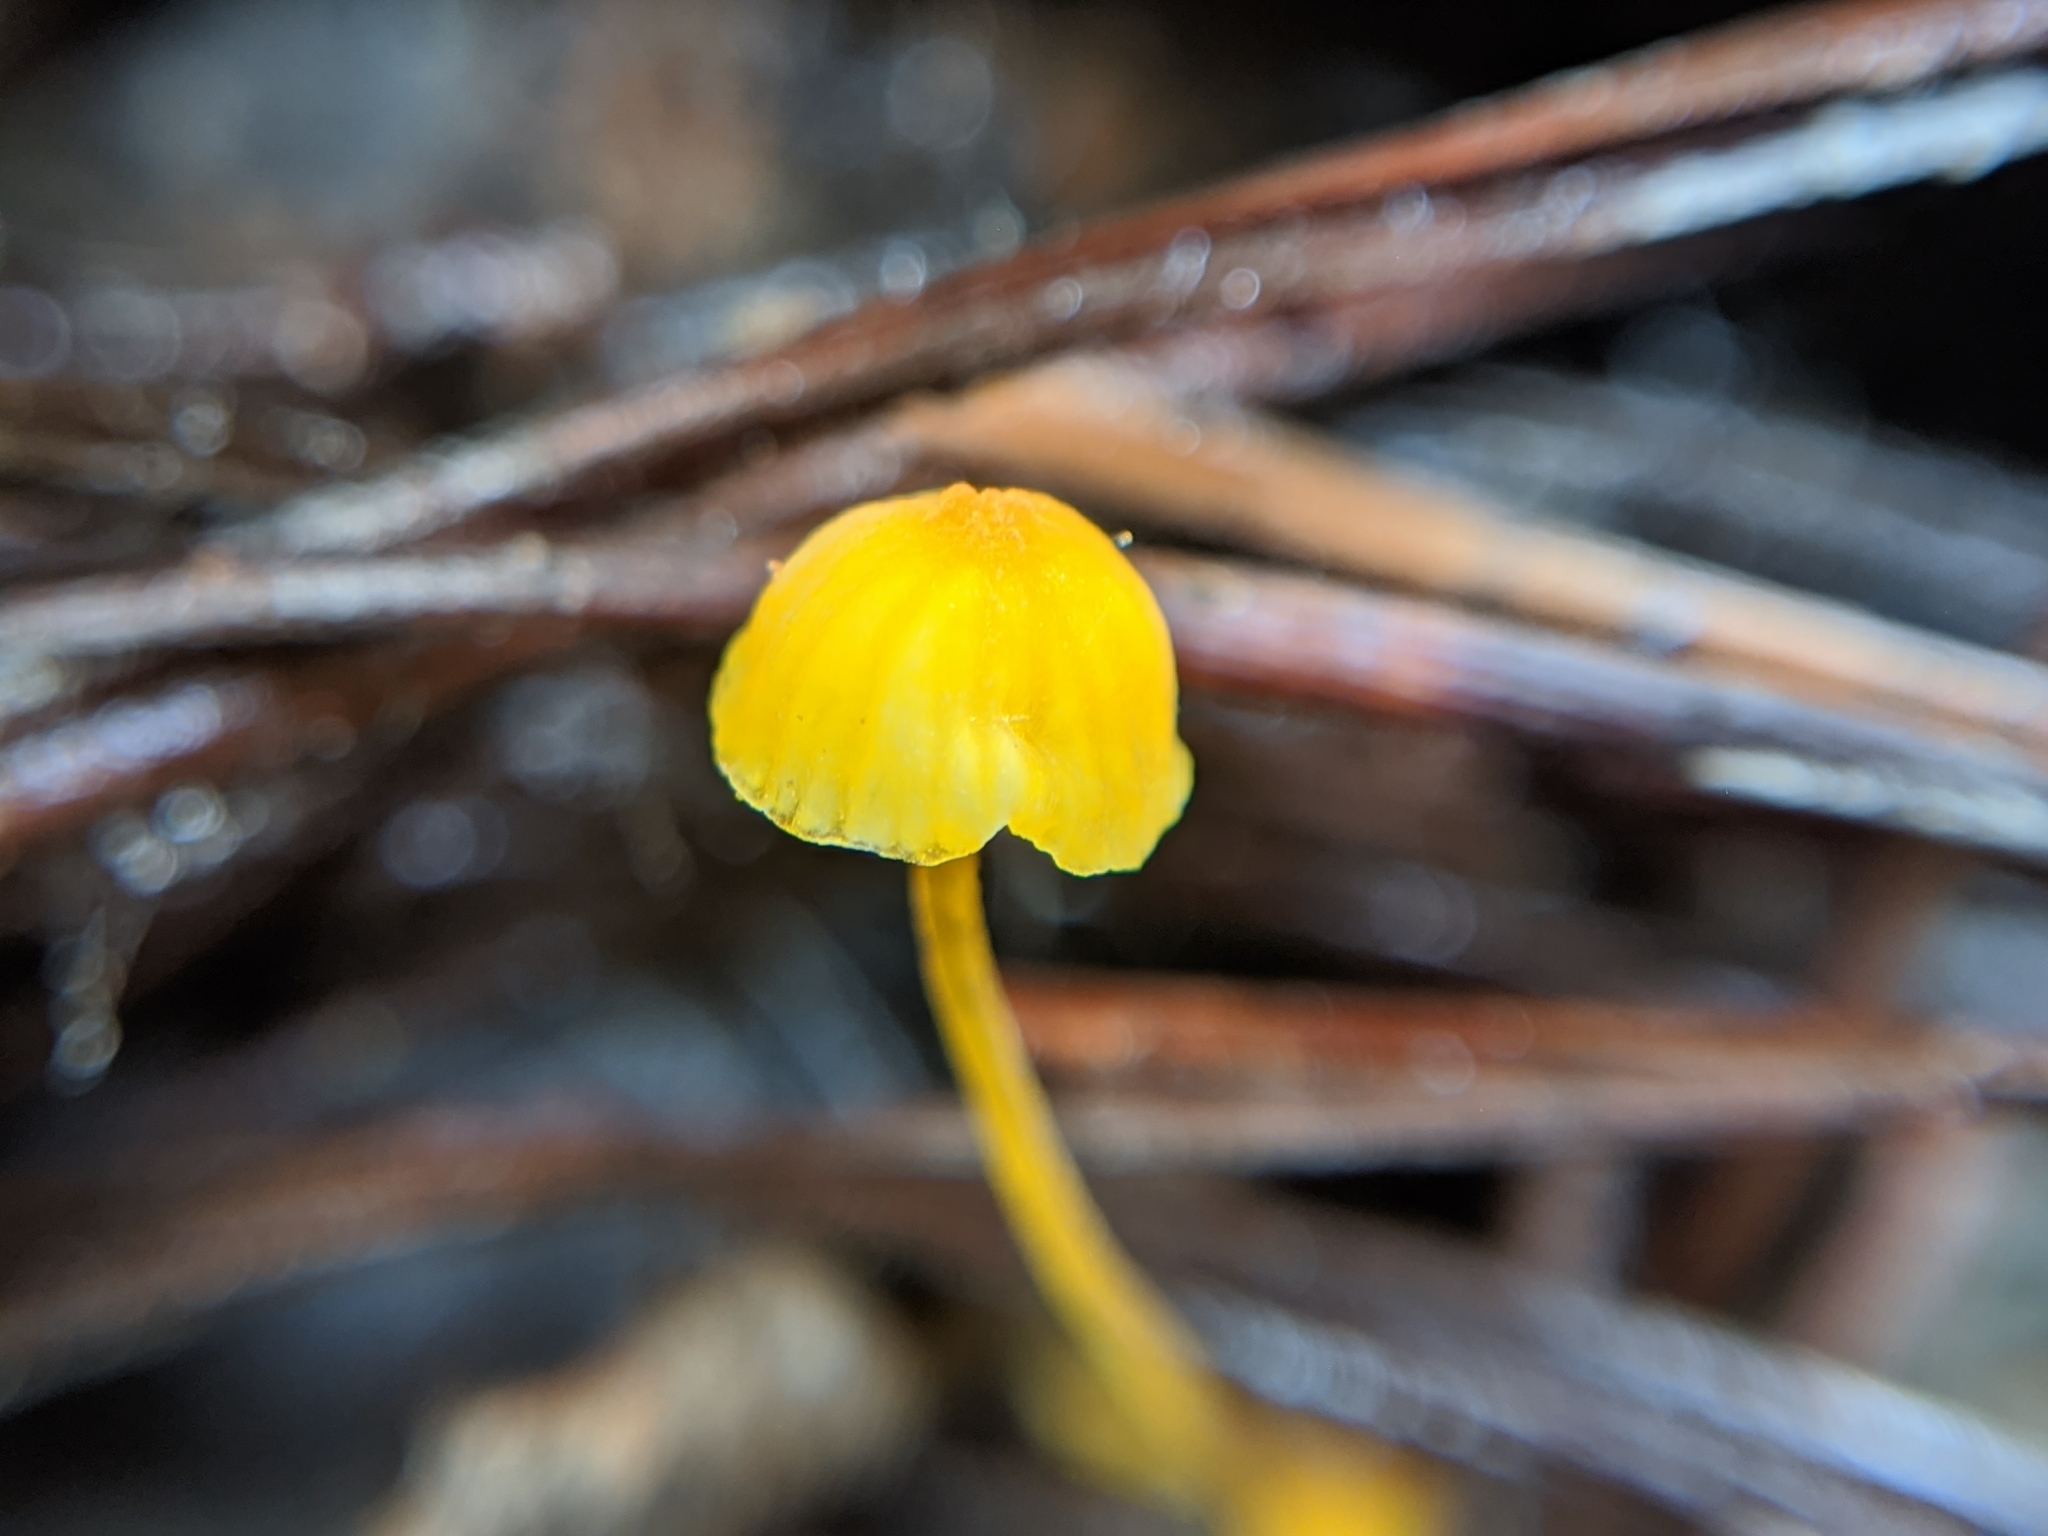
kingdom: Fungi
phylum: Basidiomycota
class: Agaricomycetes
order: Agaricales
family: Mycenaceae
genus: Mycena
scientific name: Mycena oregonensis
